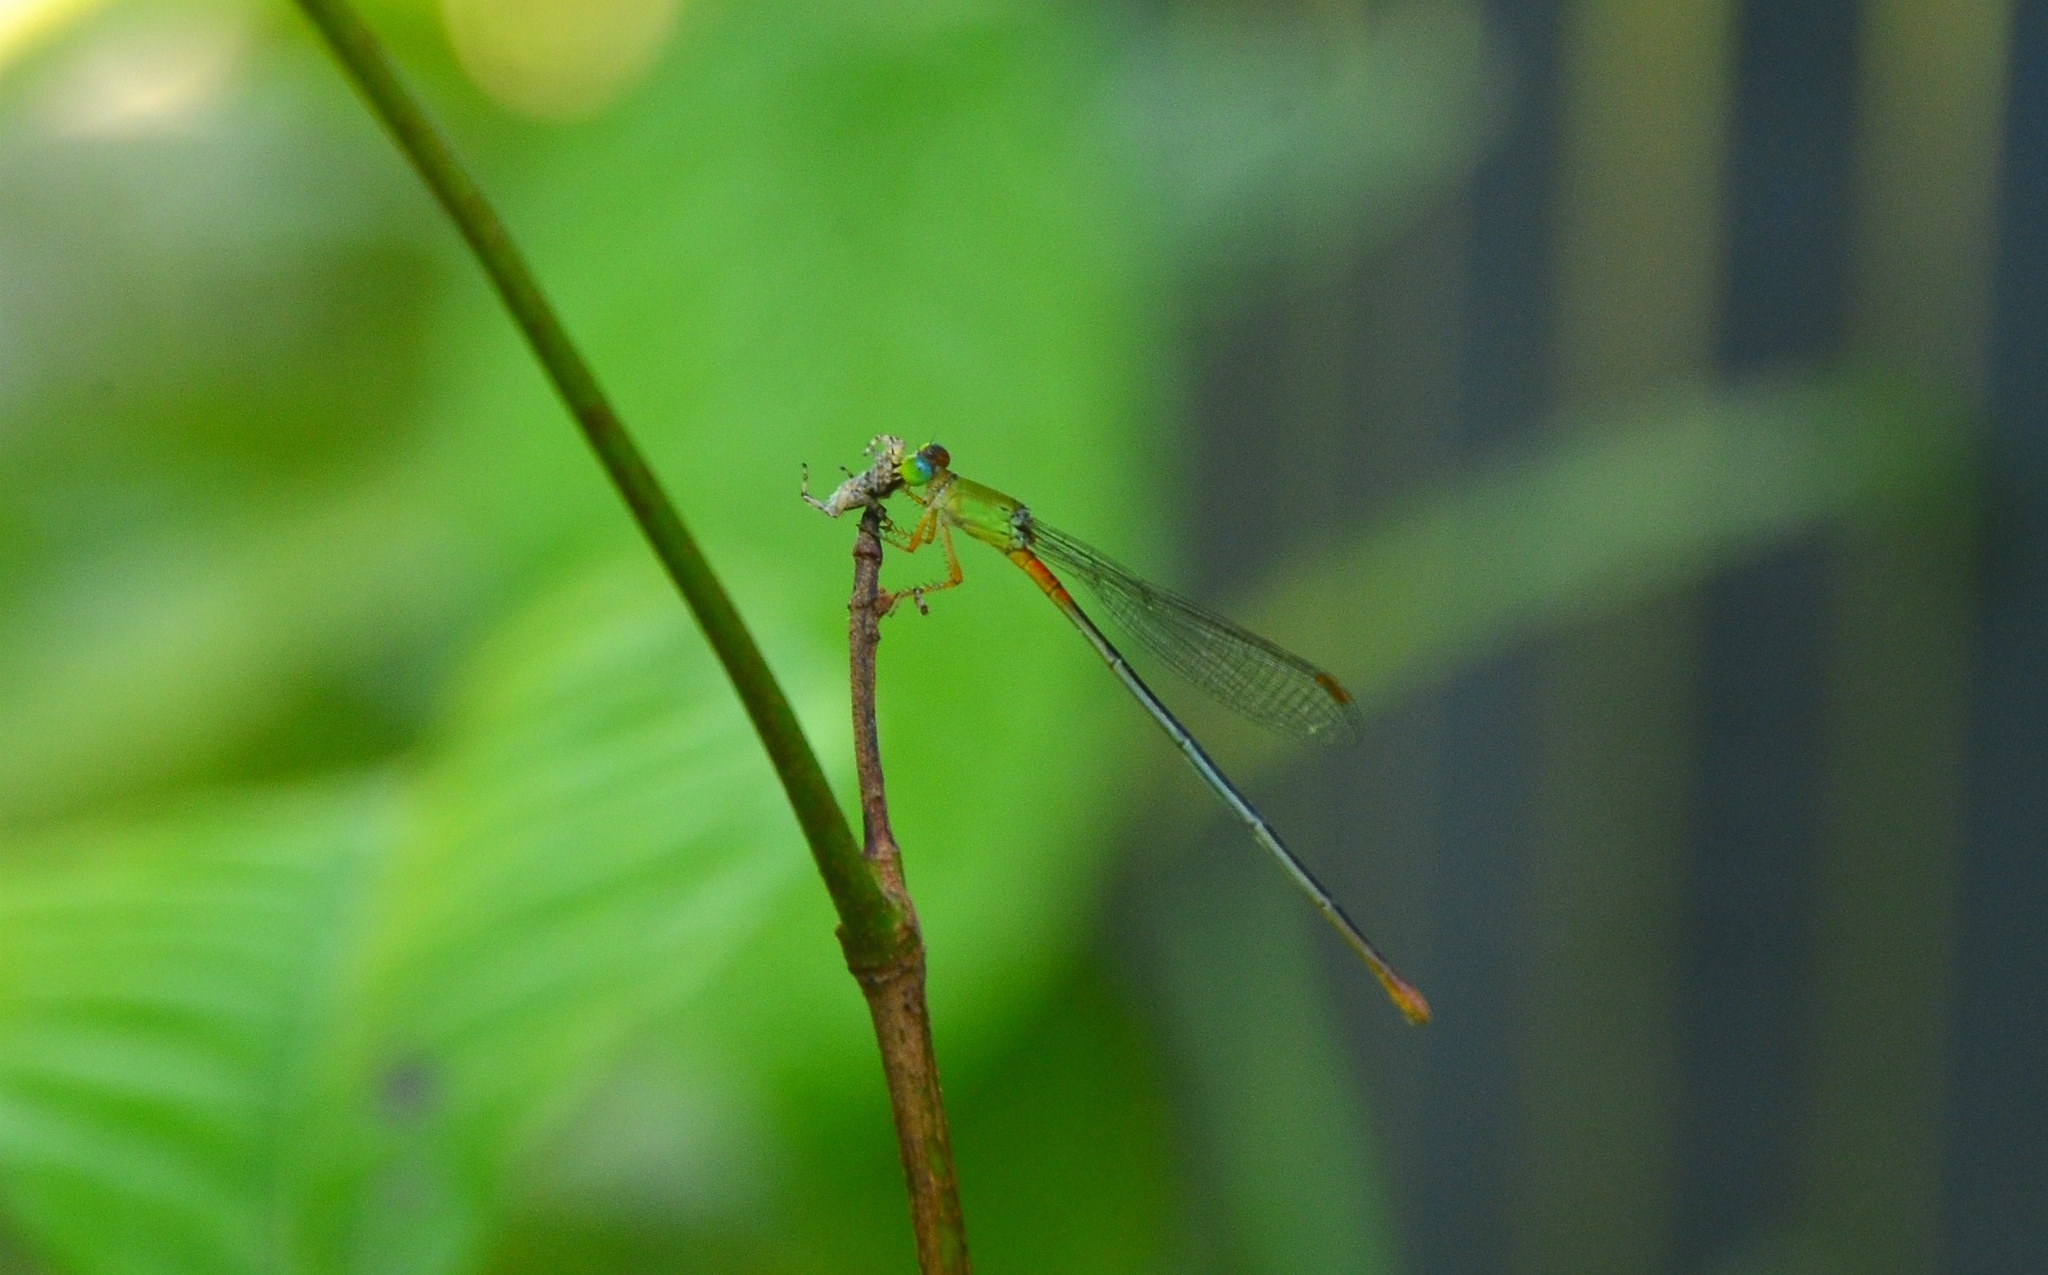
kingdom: Animalia
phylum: Arthropoda
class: Insecta
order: Odonata
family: Coenagrionidae
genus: Ceriagrion
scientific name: Ceriagrion cerinorubellum
